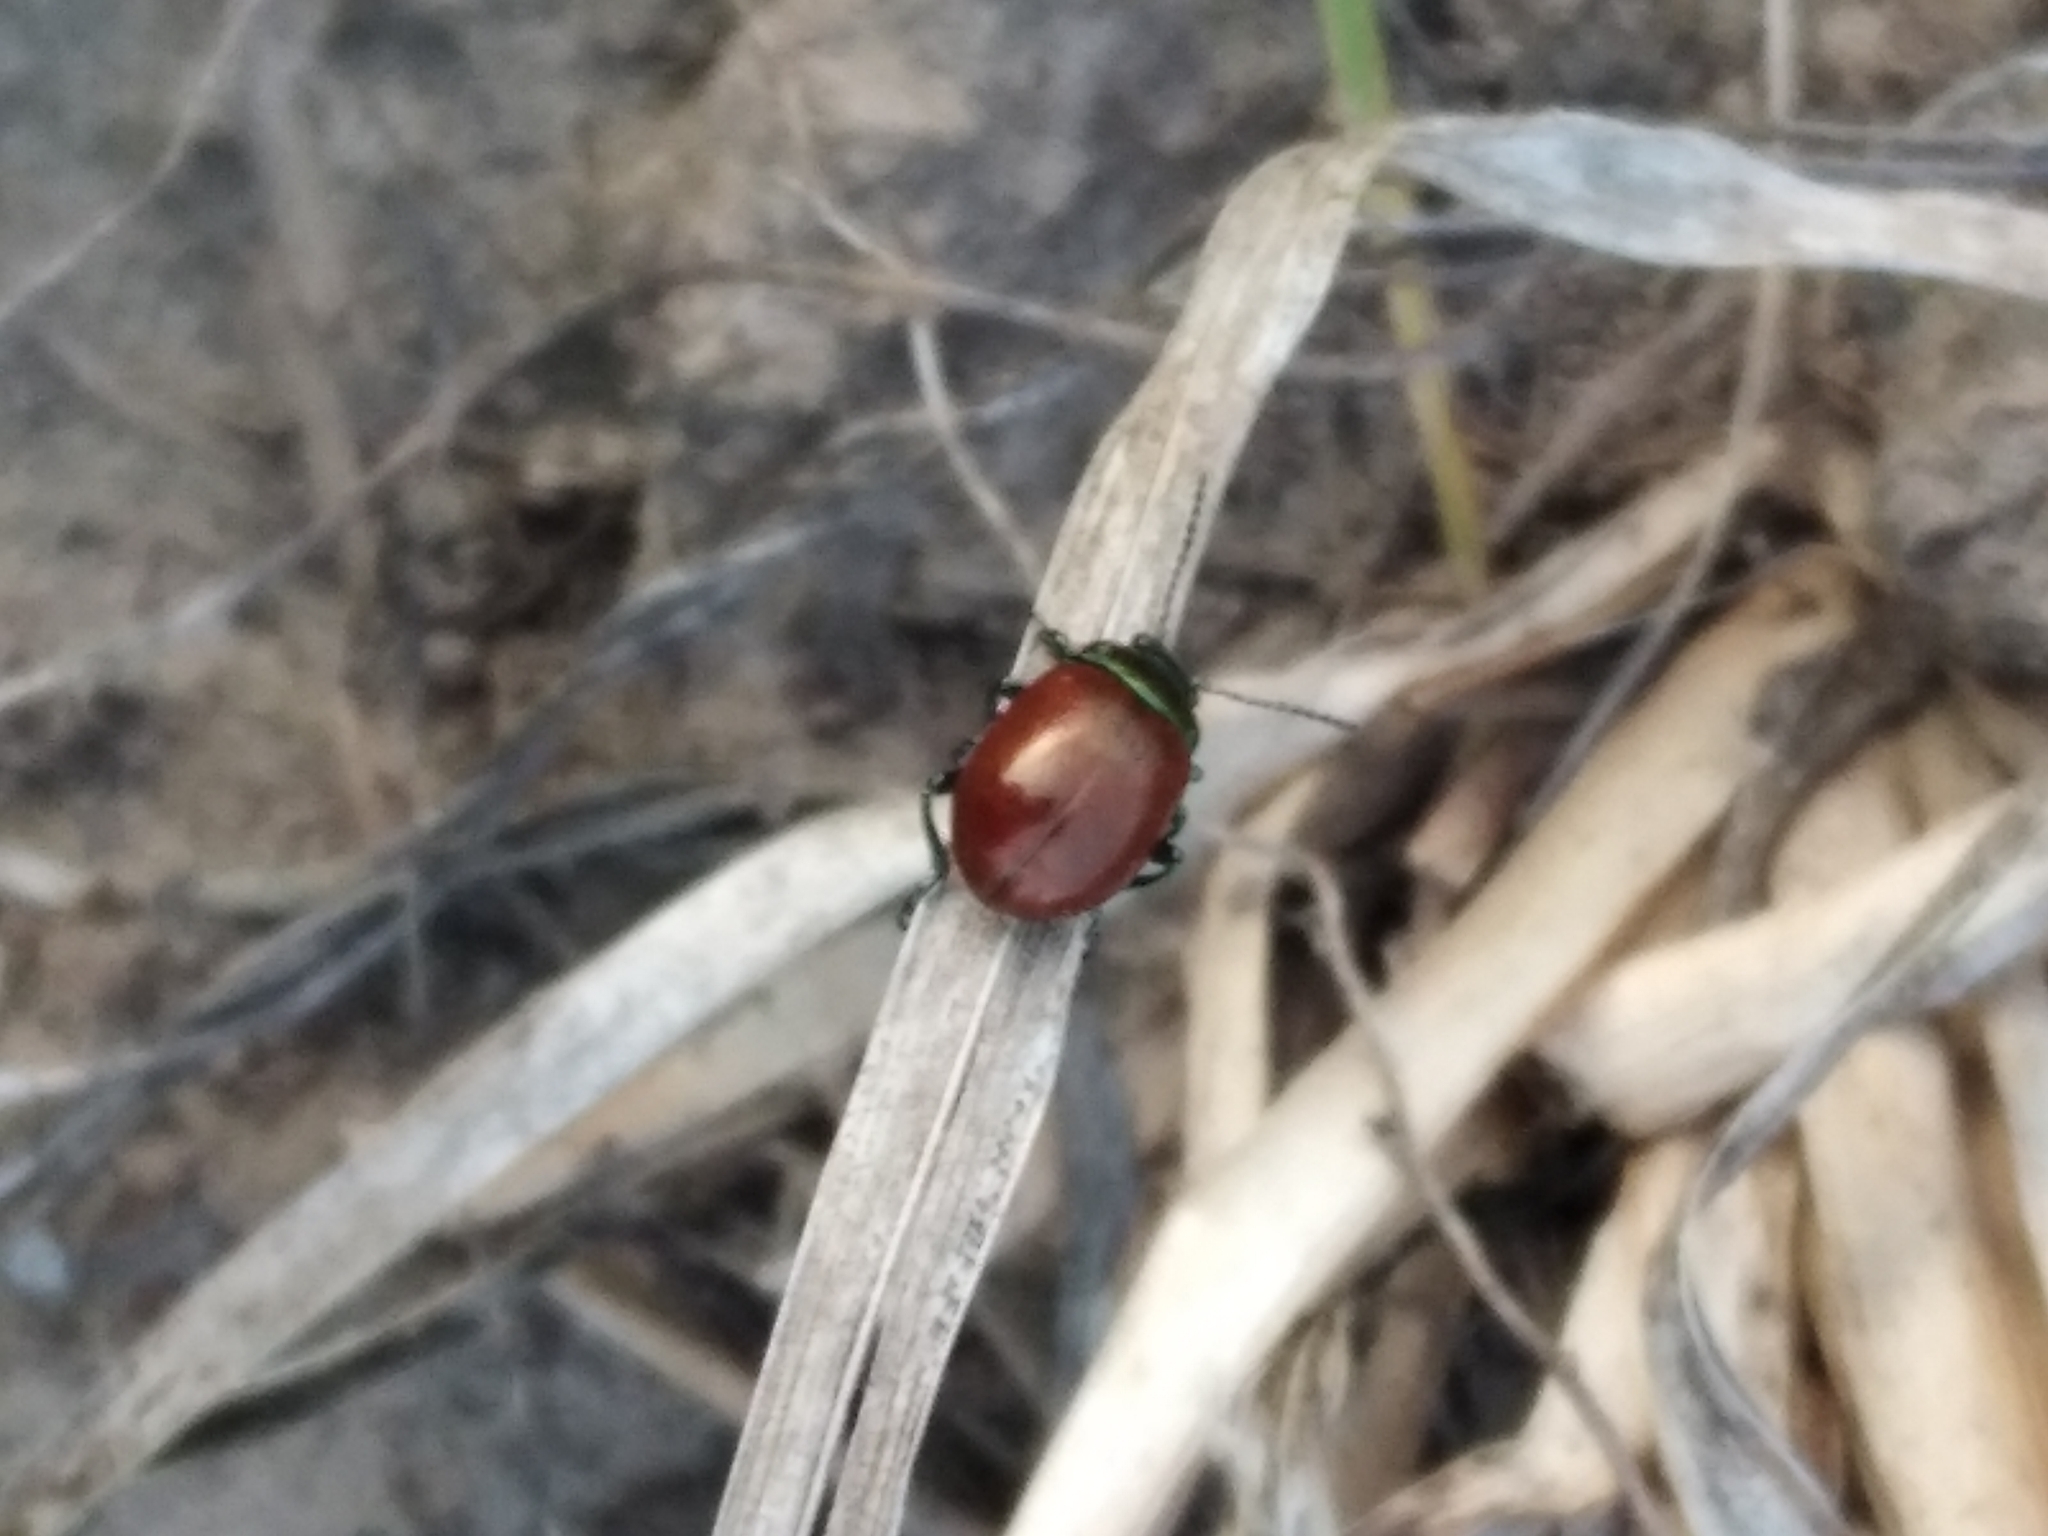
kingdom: Animalia
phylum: Arthropoda
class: Insecta
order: Coleoptera
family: Chrysomelidae
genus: Chrysomela
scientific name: Chrysomela polita
